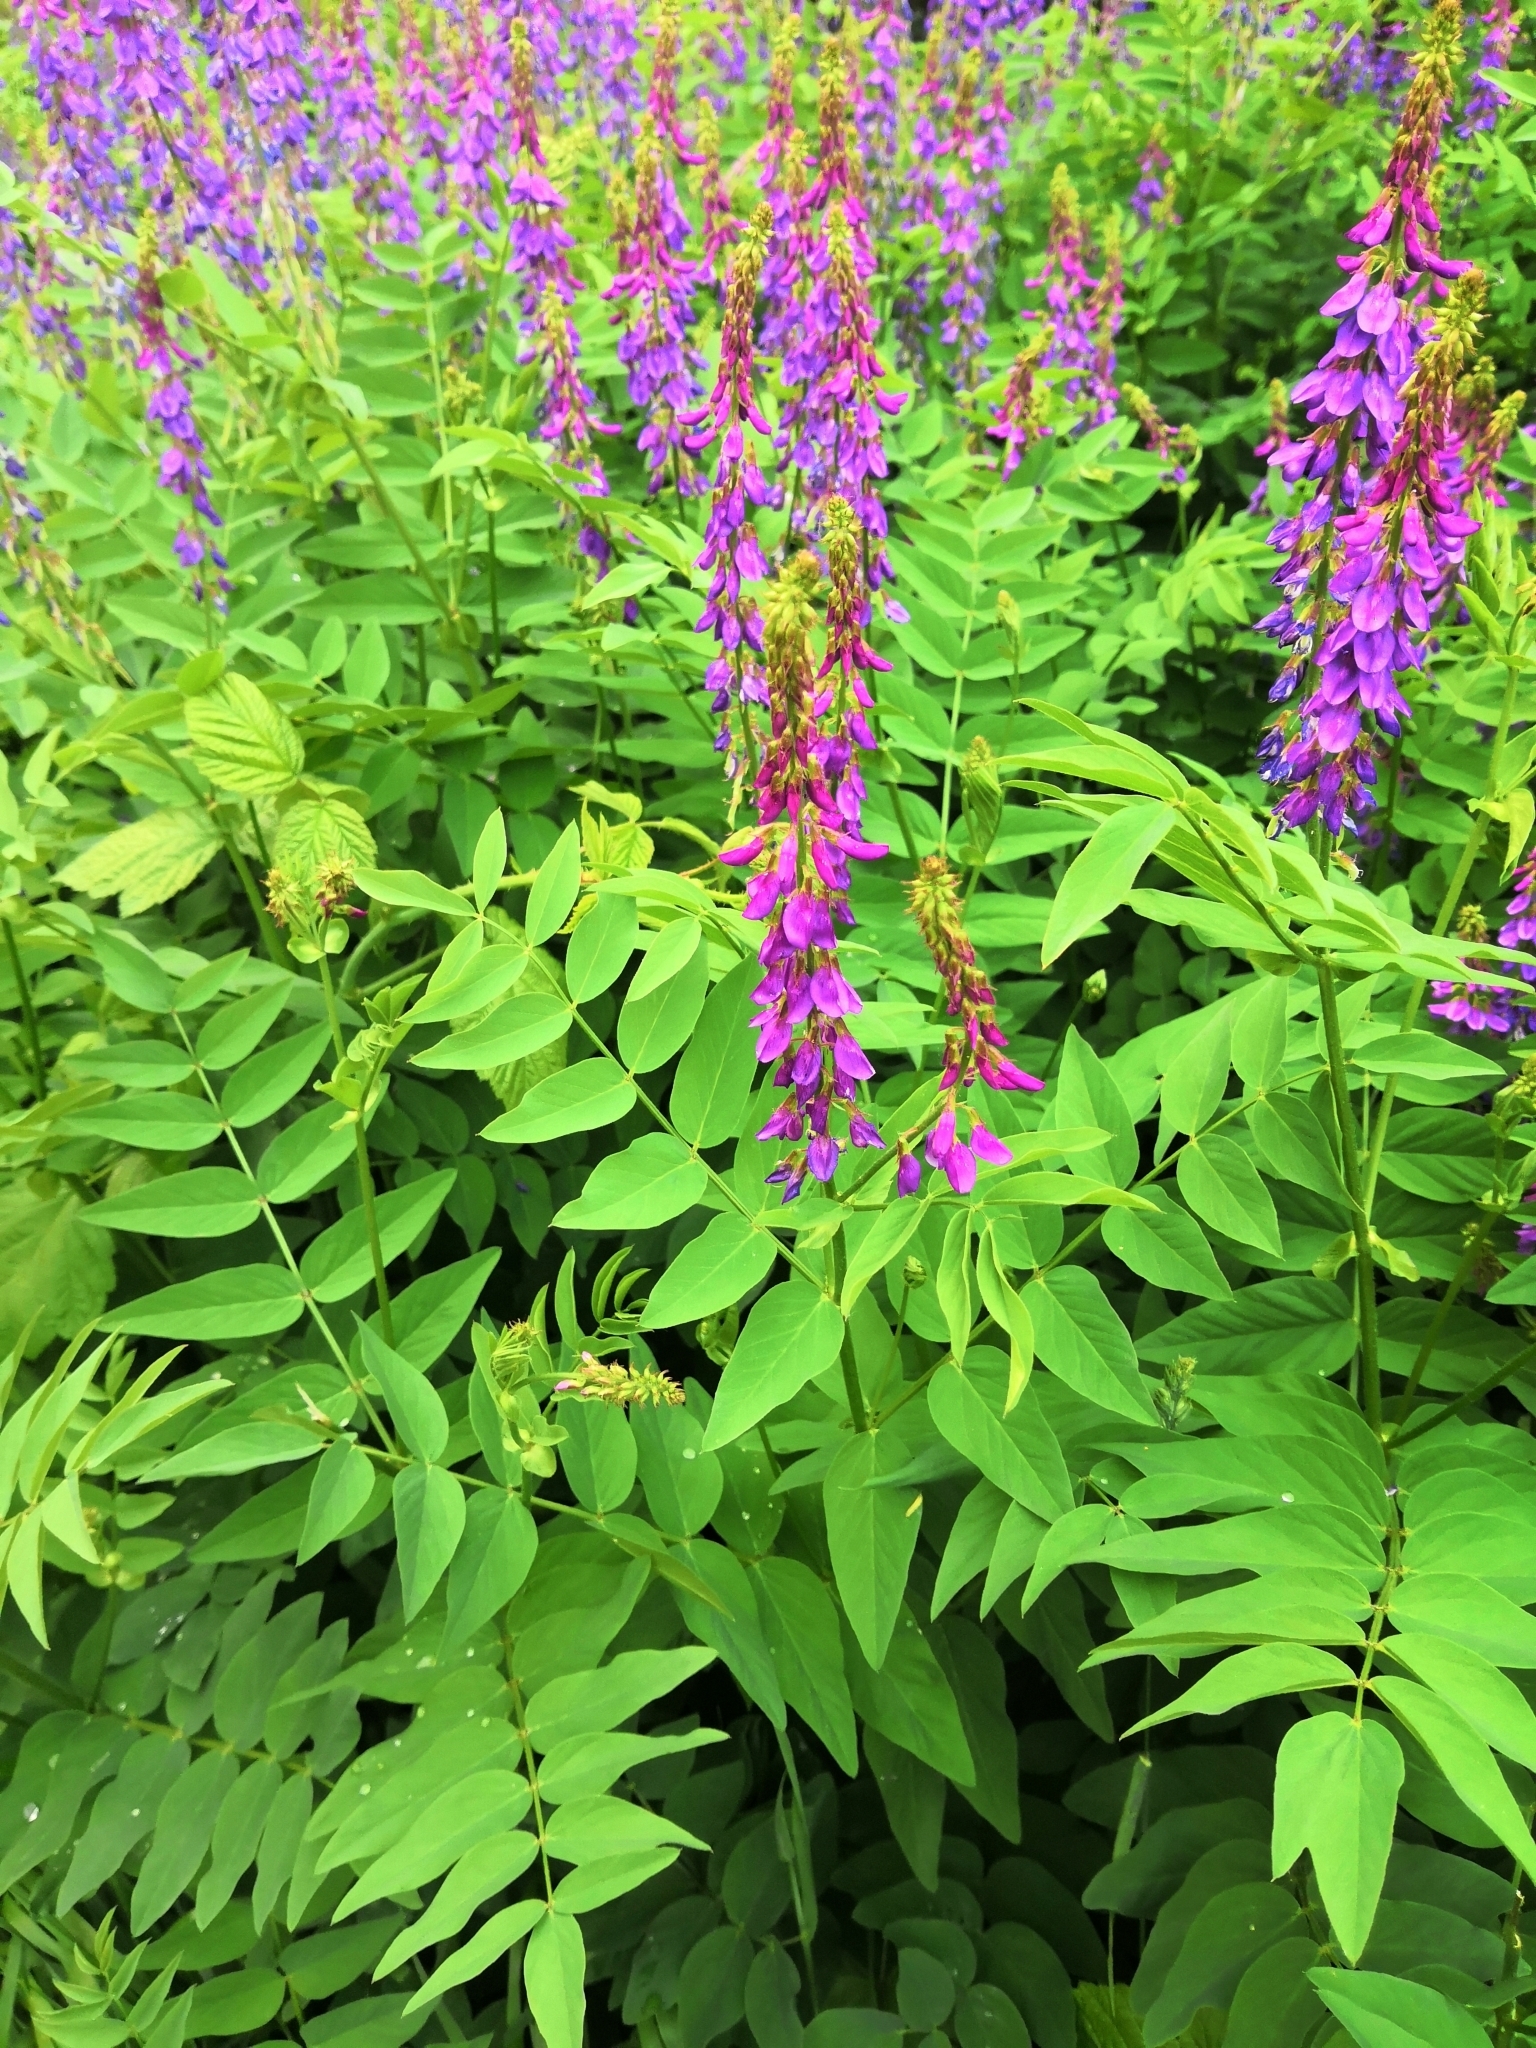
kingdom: Plantae
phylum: Tracheophyta
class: Magnoliopsida
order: Fabales
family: Fabaceae
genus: Galega
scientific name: Galega orientalis
